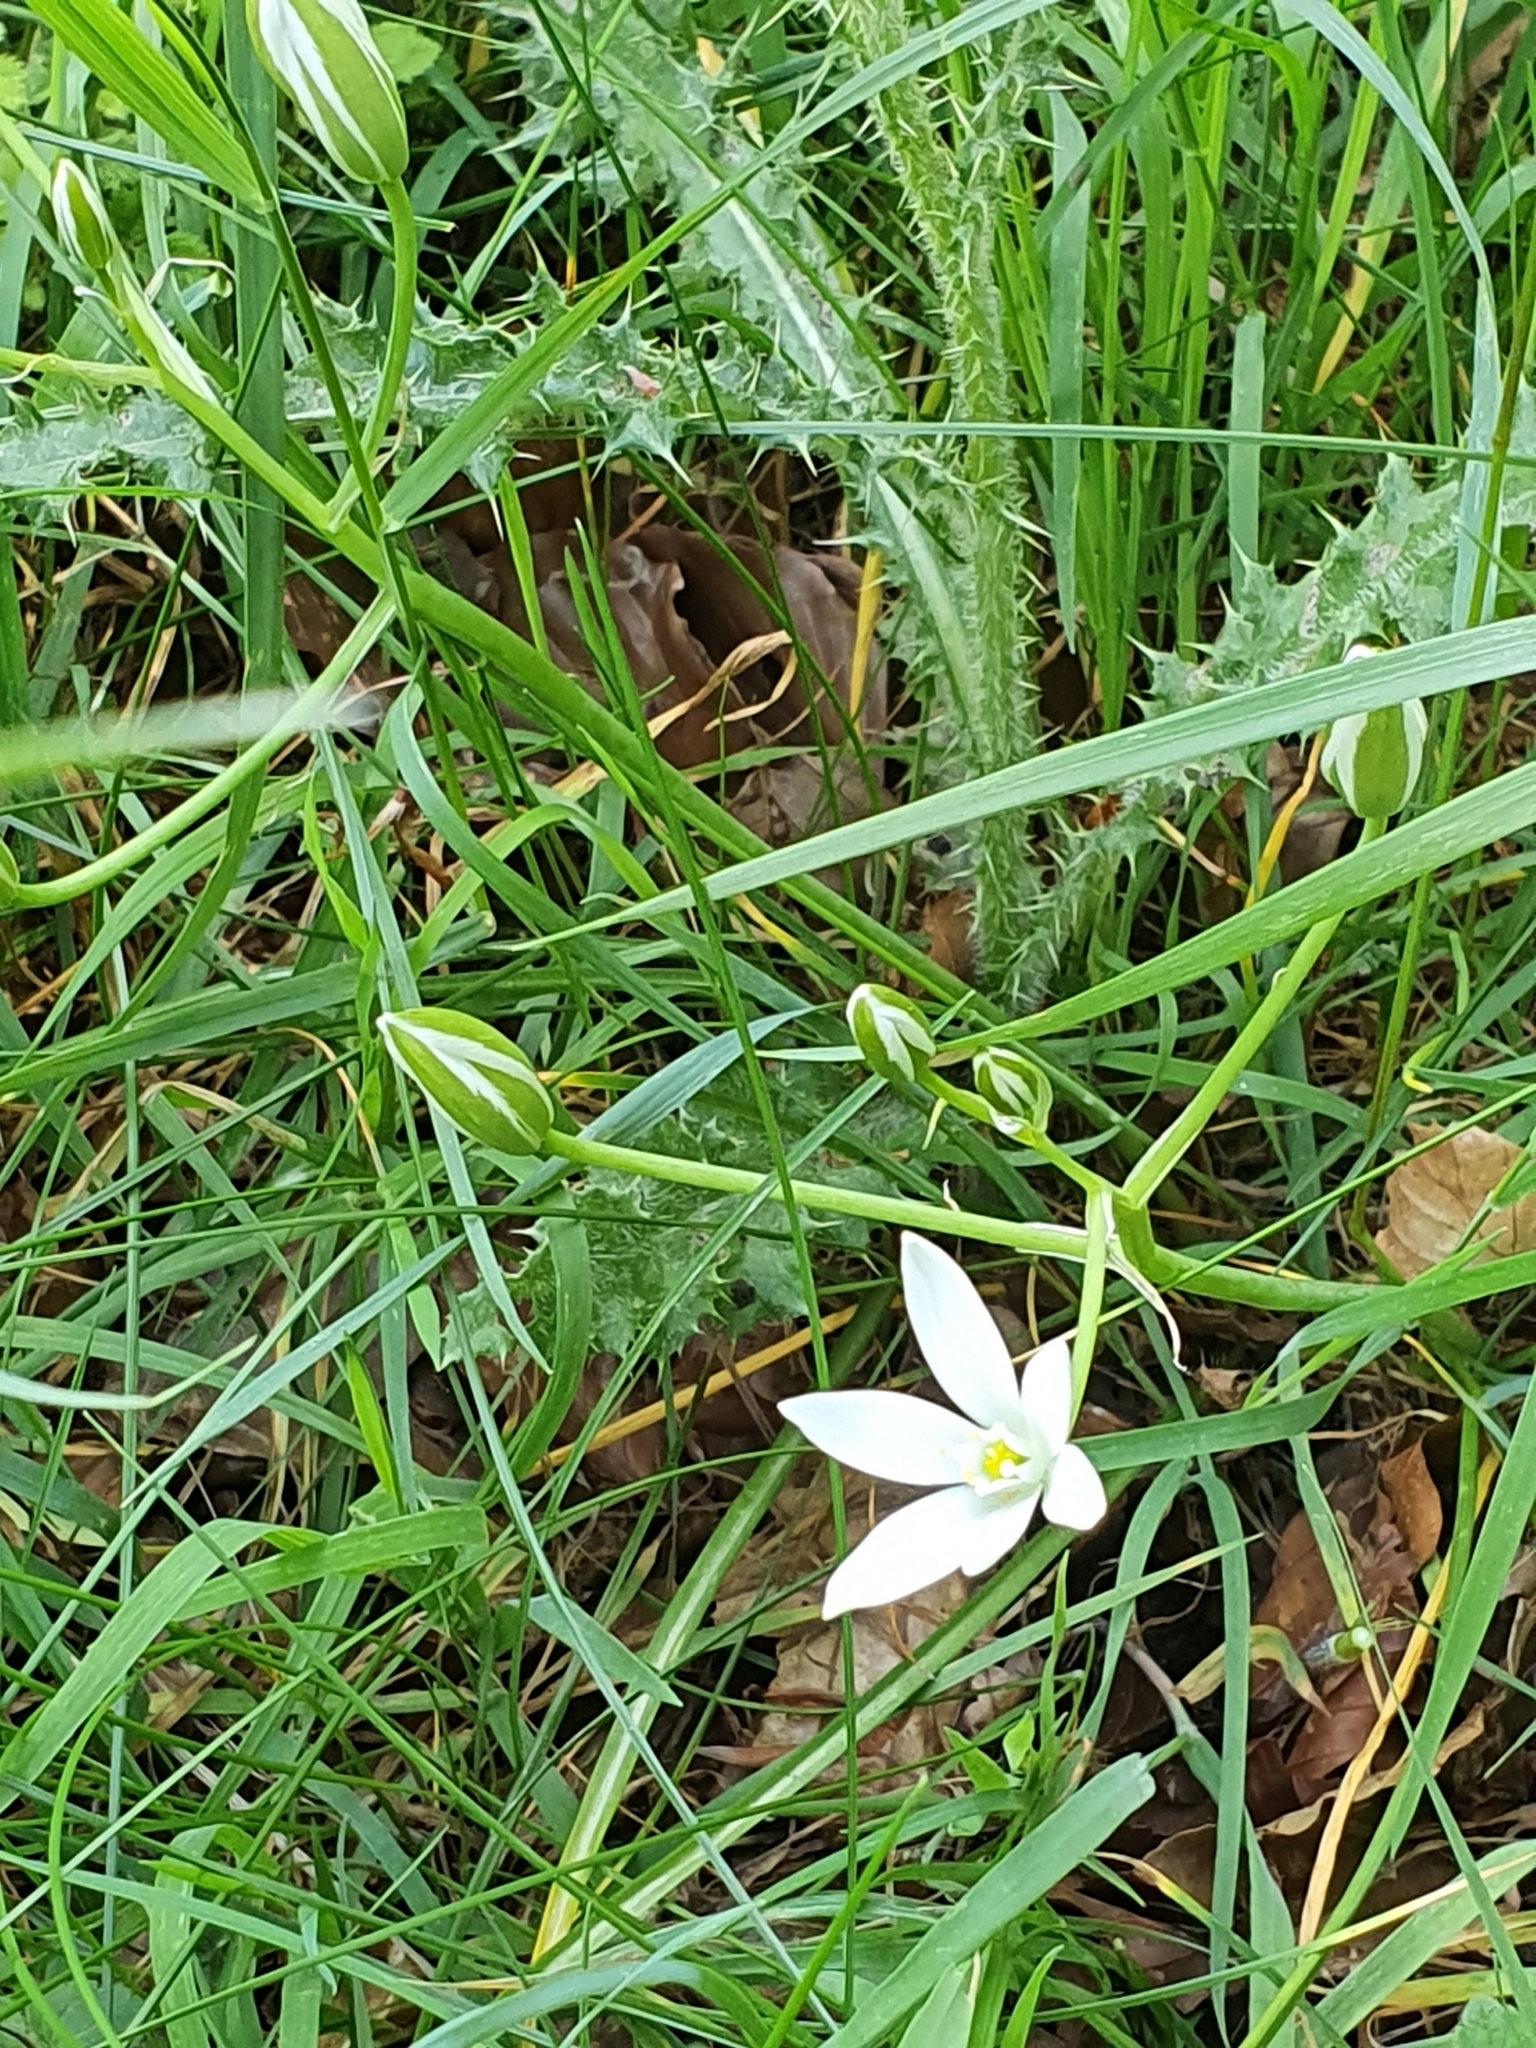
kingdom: Plantae
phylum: Tracheophyta
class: Liliopsida
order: Asparagales
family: Asparagaceae
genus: Ornithogalum
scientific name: Ornithogalum umbellatum
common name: Garden star-of-bethlehem
